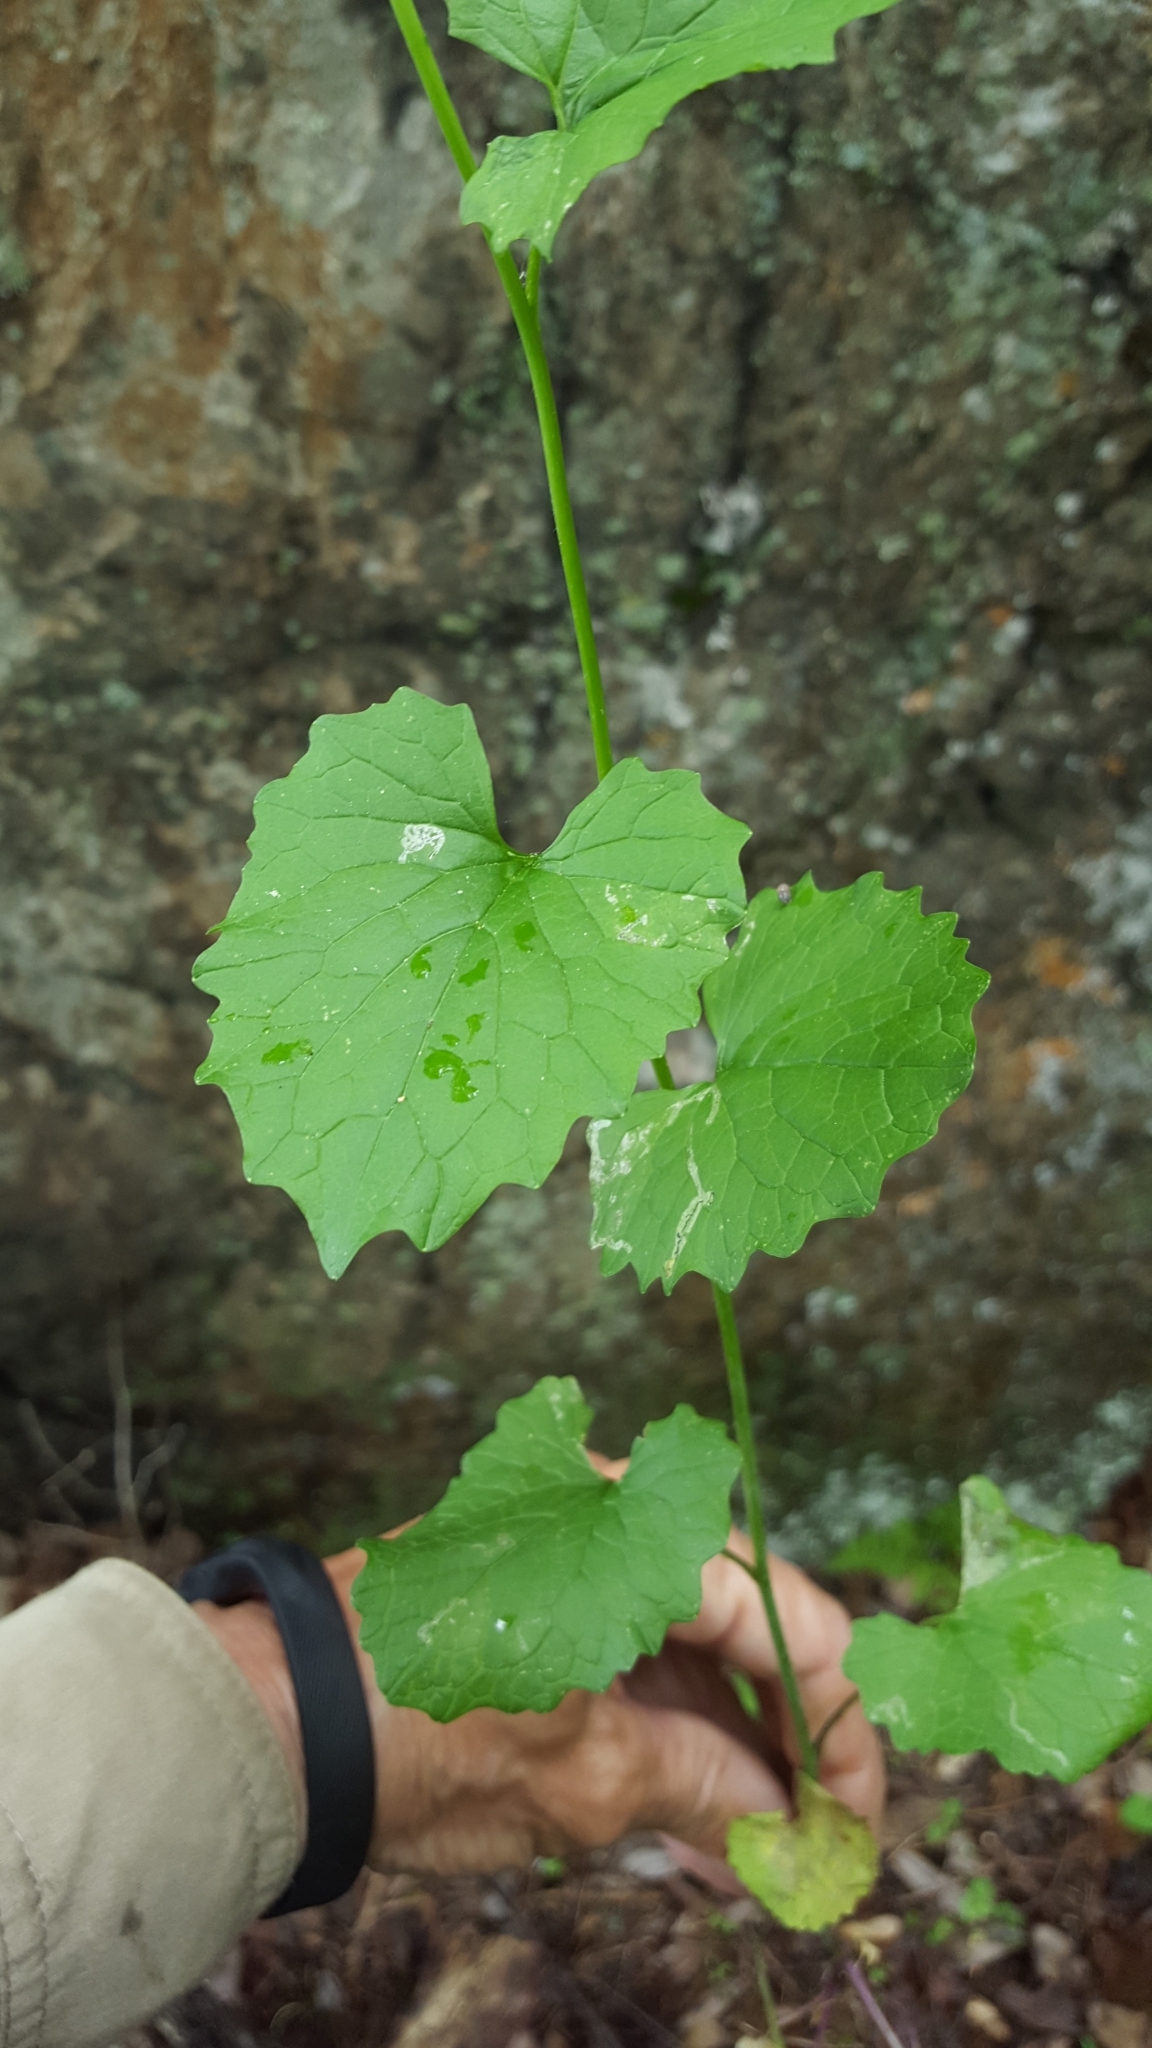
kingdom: Plantae
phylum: Tracheophyta
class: Magnoliopsida
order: Brassicales
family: Brassicaceae
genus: Alliaria
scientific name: Alliaria petiolata
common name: Garlic mustard
